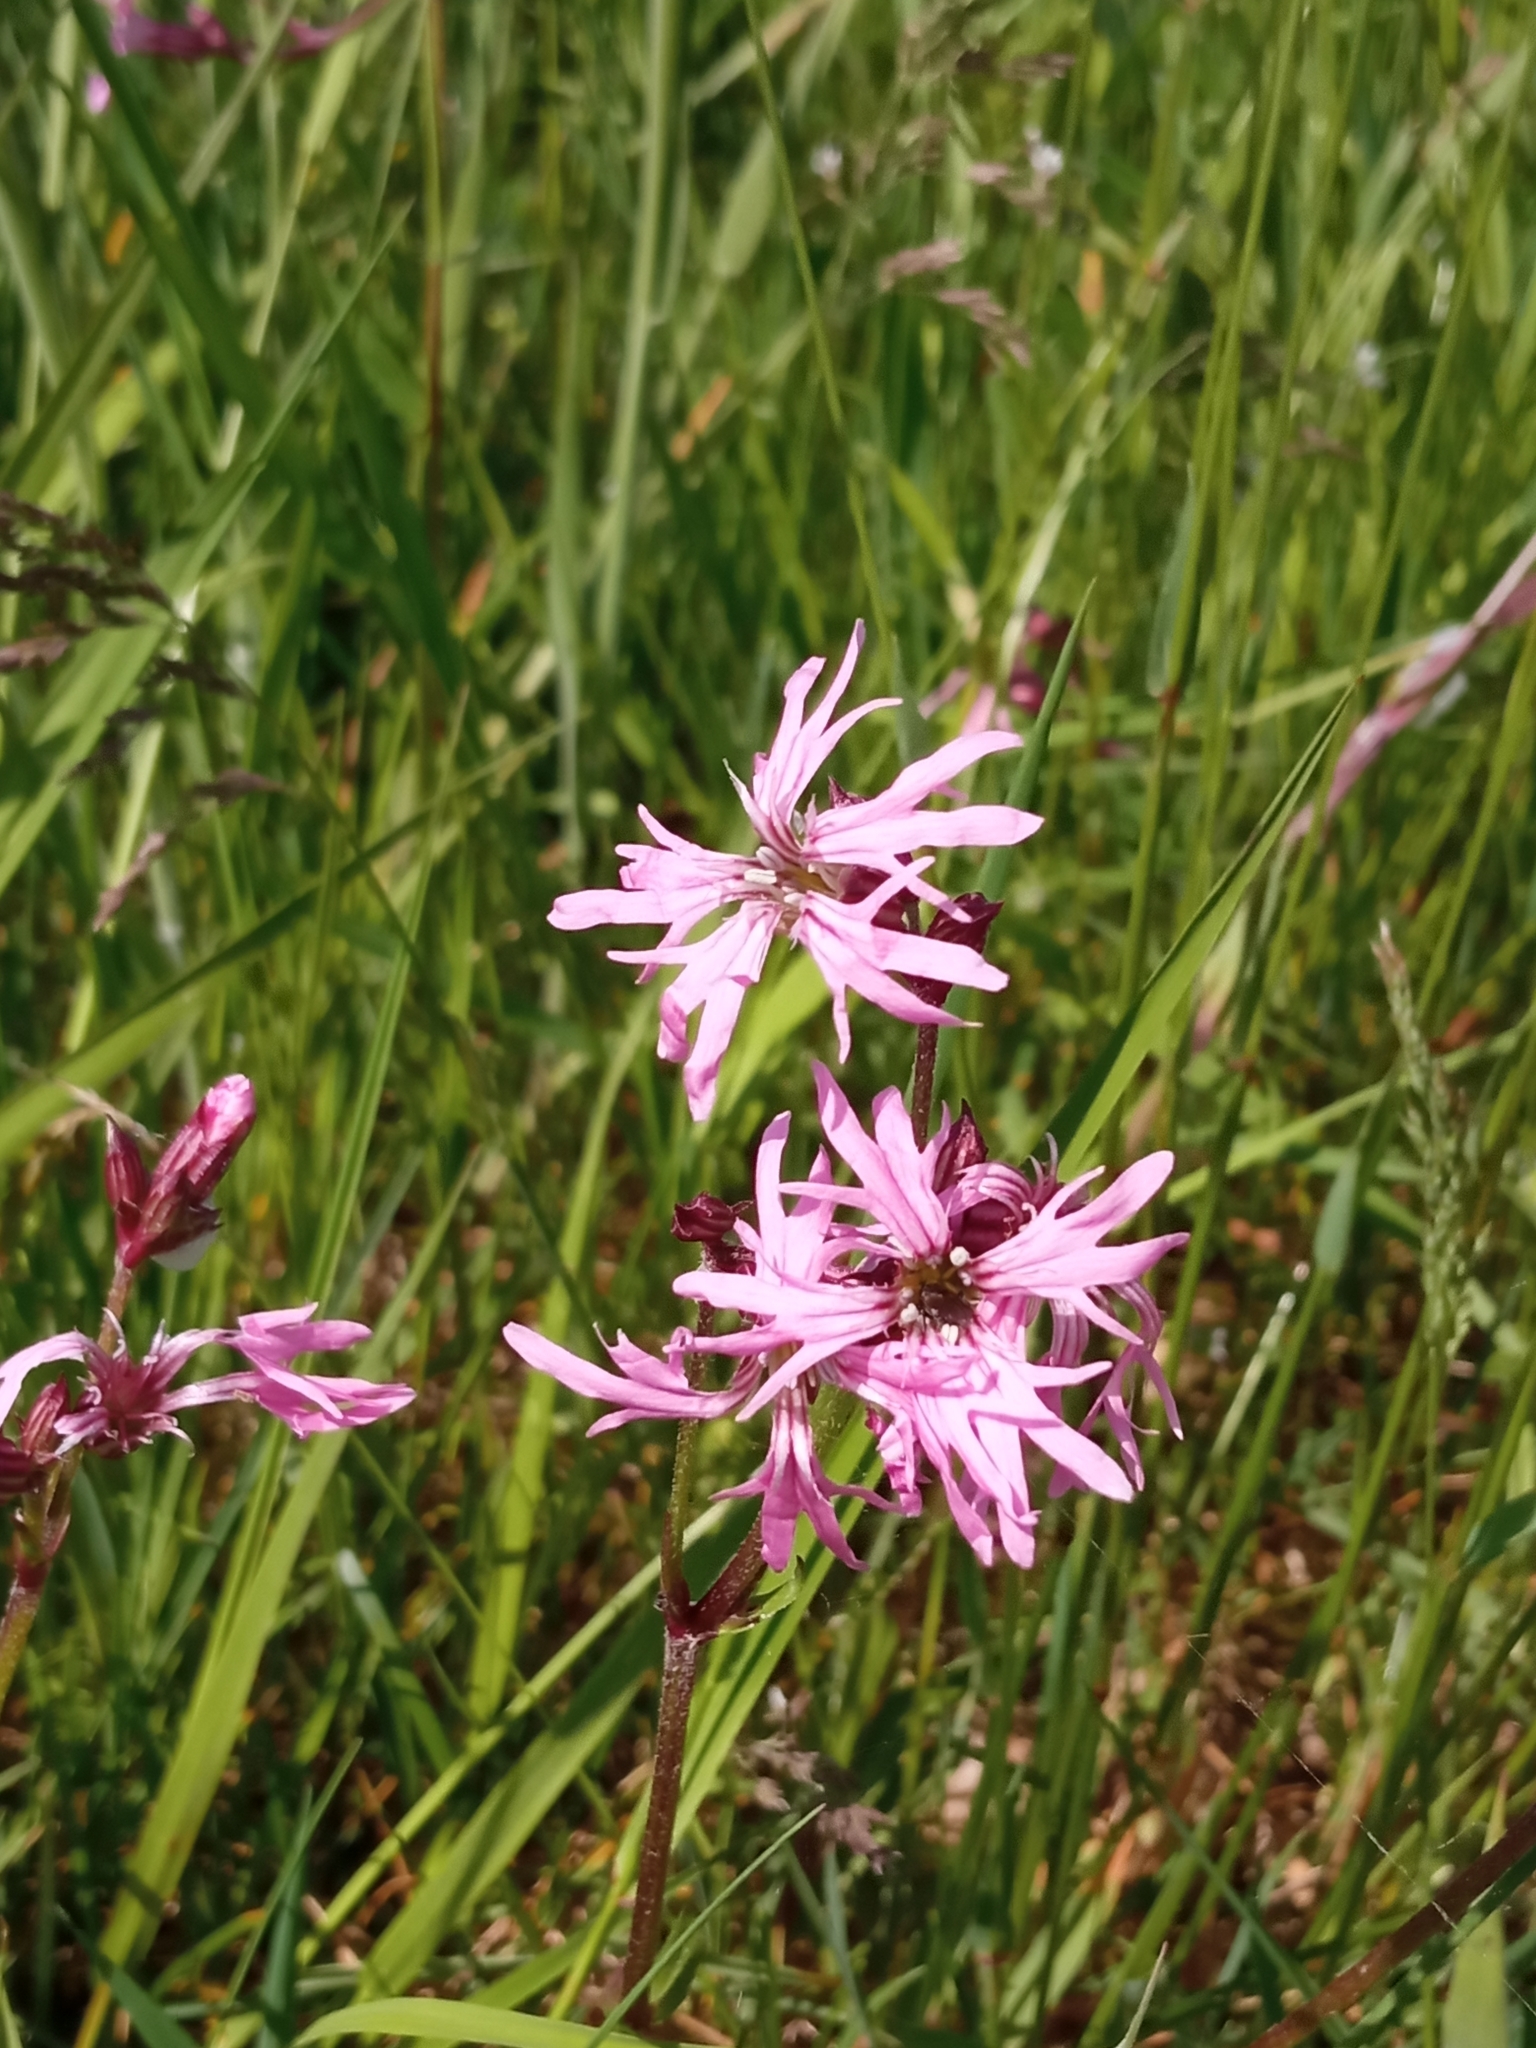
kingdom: Plantae
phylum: Tracheophyta
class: Magnoliopsida
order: Caryophyllales
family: Caryophyllaceae
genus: Silene
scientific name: Silene flos-cuculi
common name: Ragged-robin
